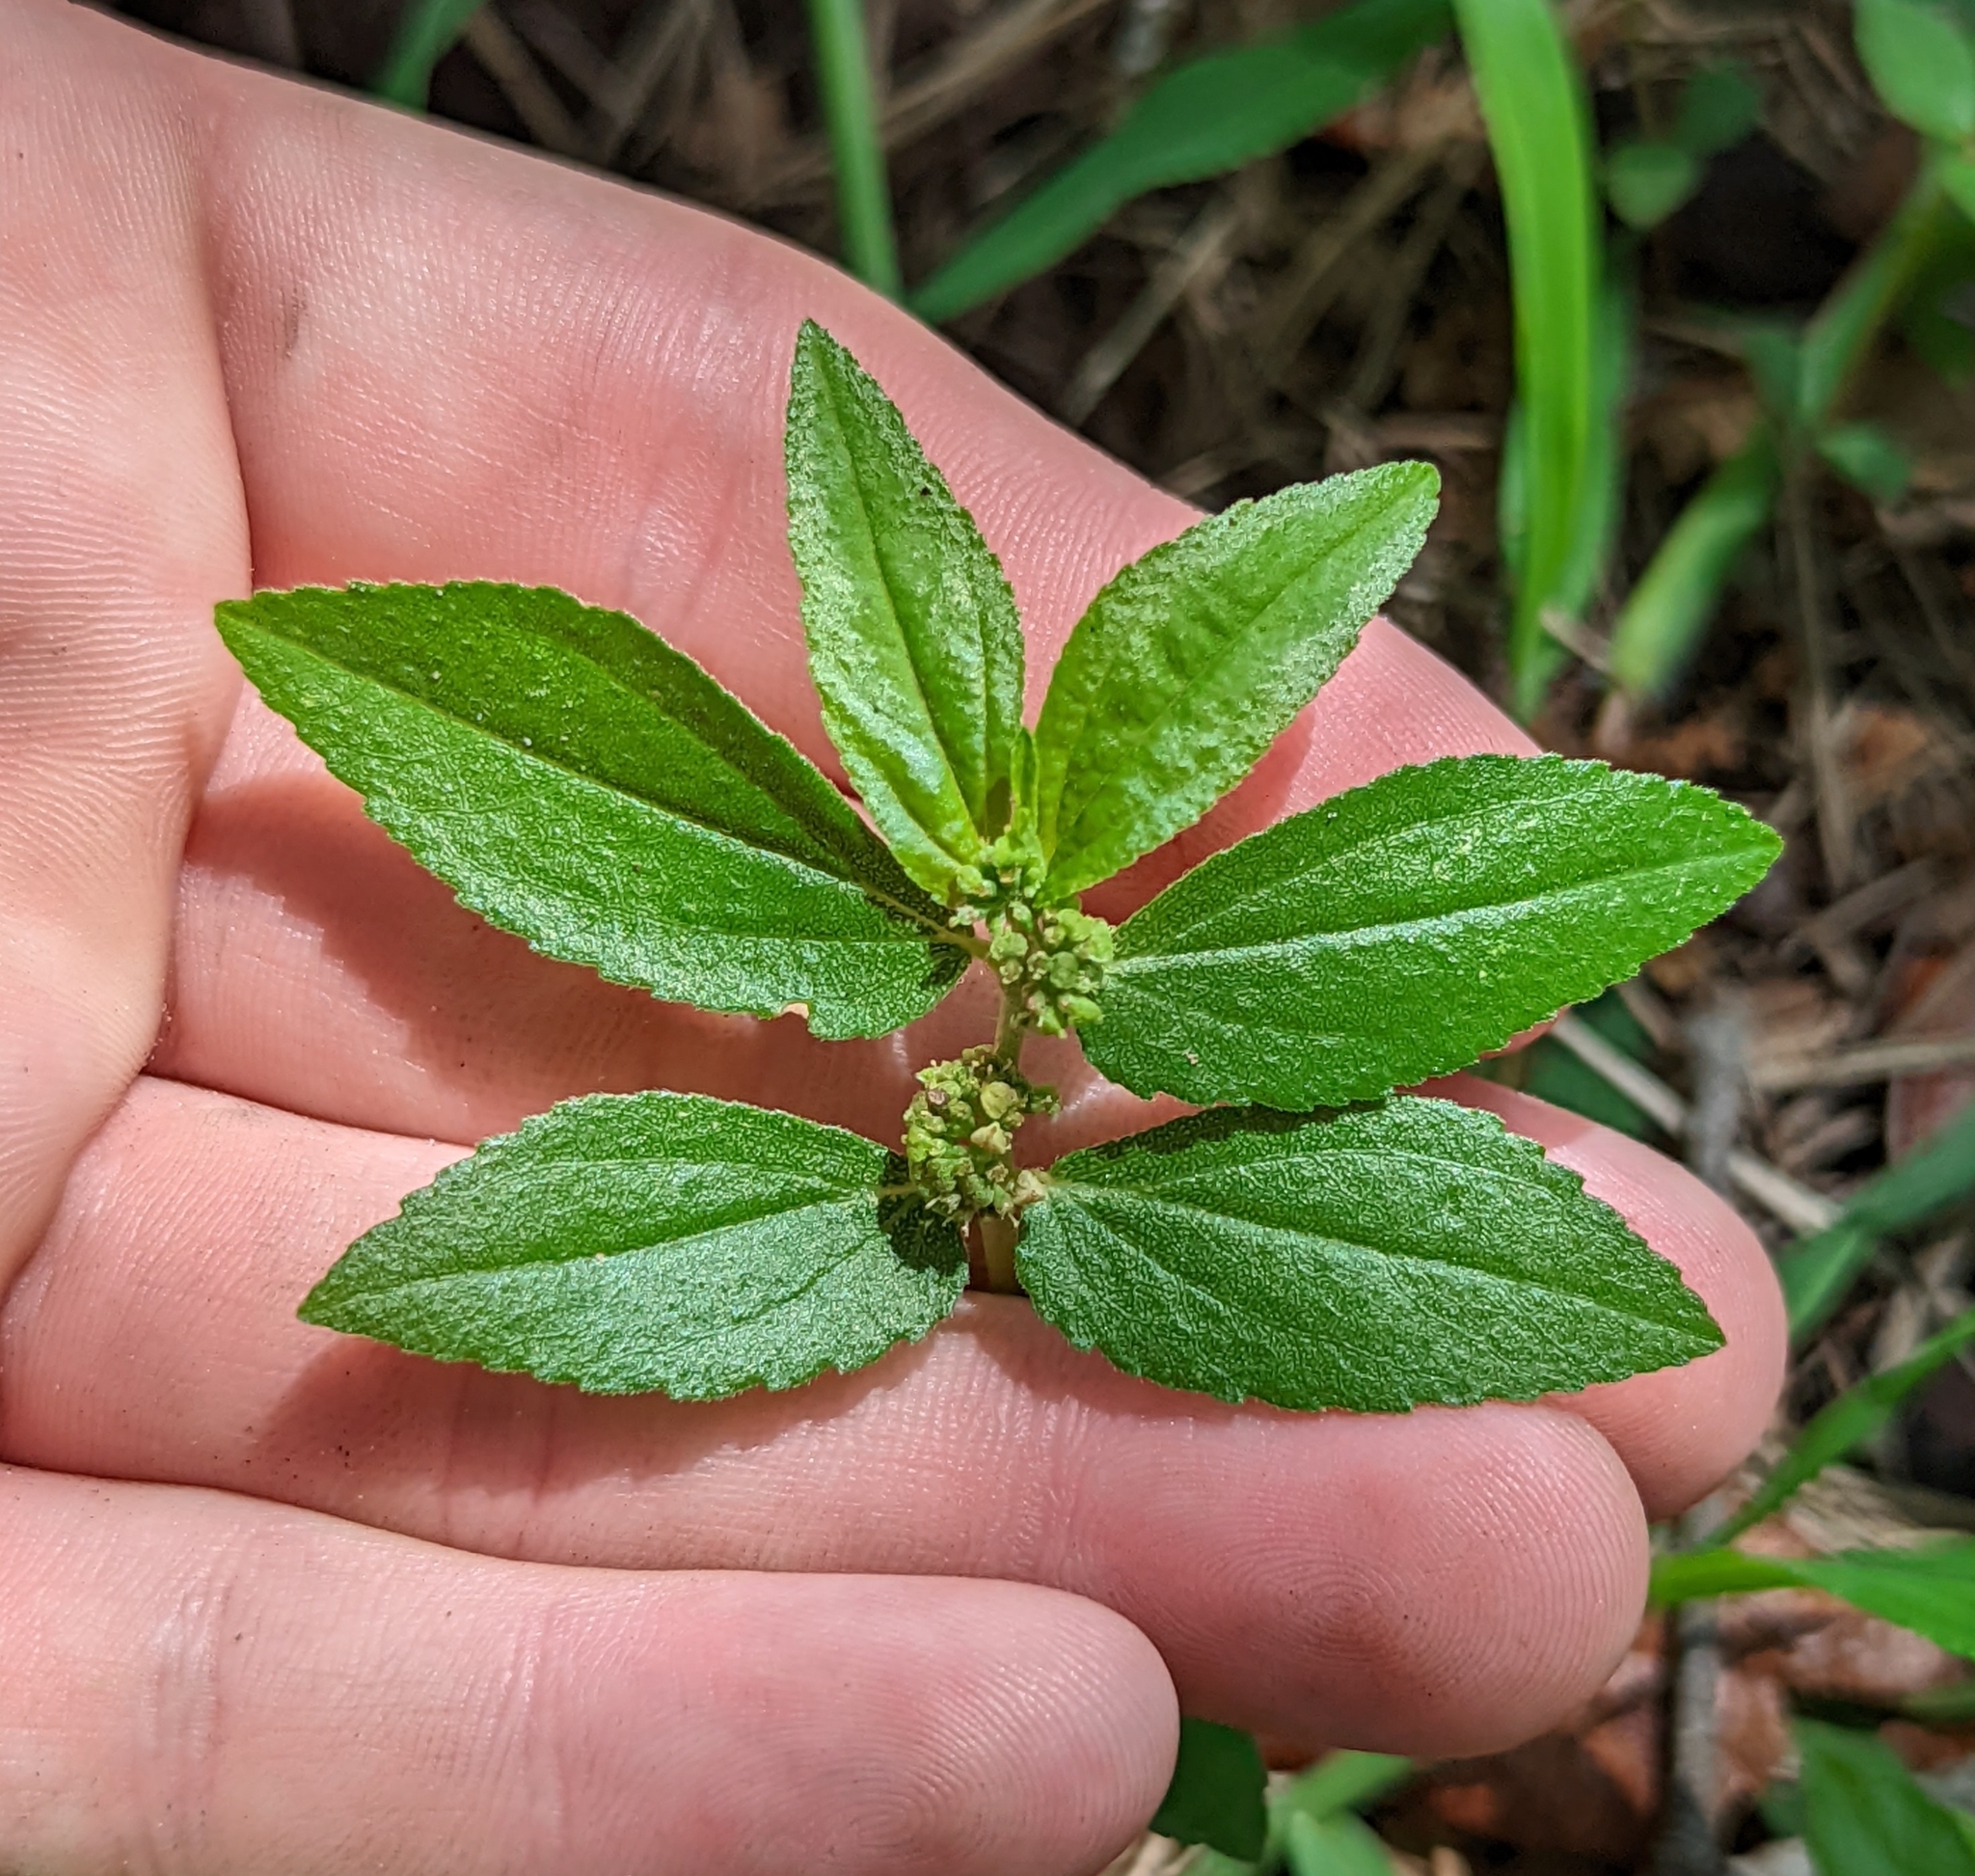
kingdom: Plantae
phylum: Tracheophyta
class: Magnoliopsida
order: Malpighiales
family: Euphorbiaceae
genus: Euphorbia
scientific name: Euphorbia hirta
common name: Pillpod sandmat
